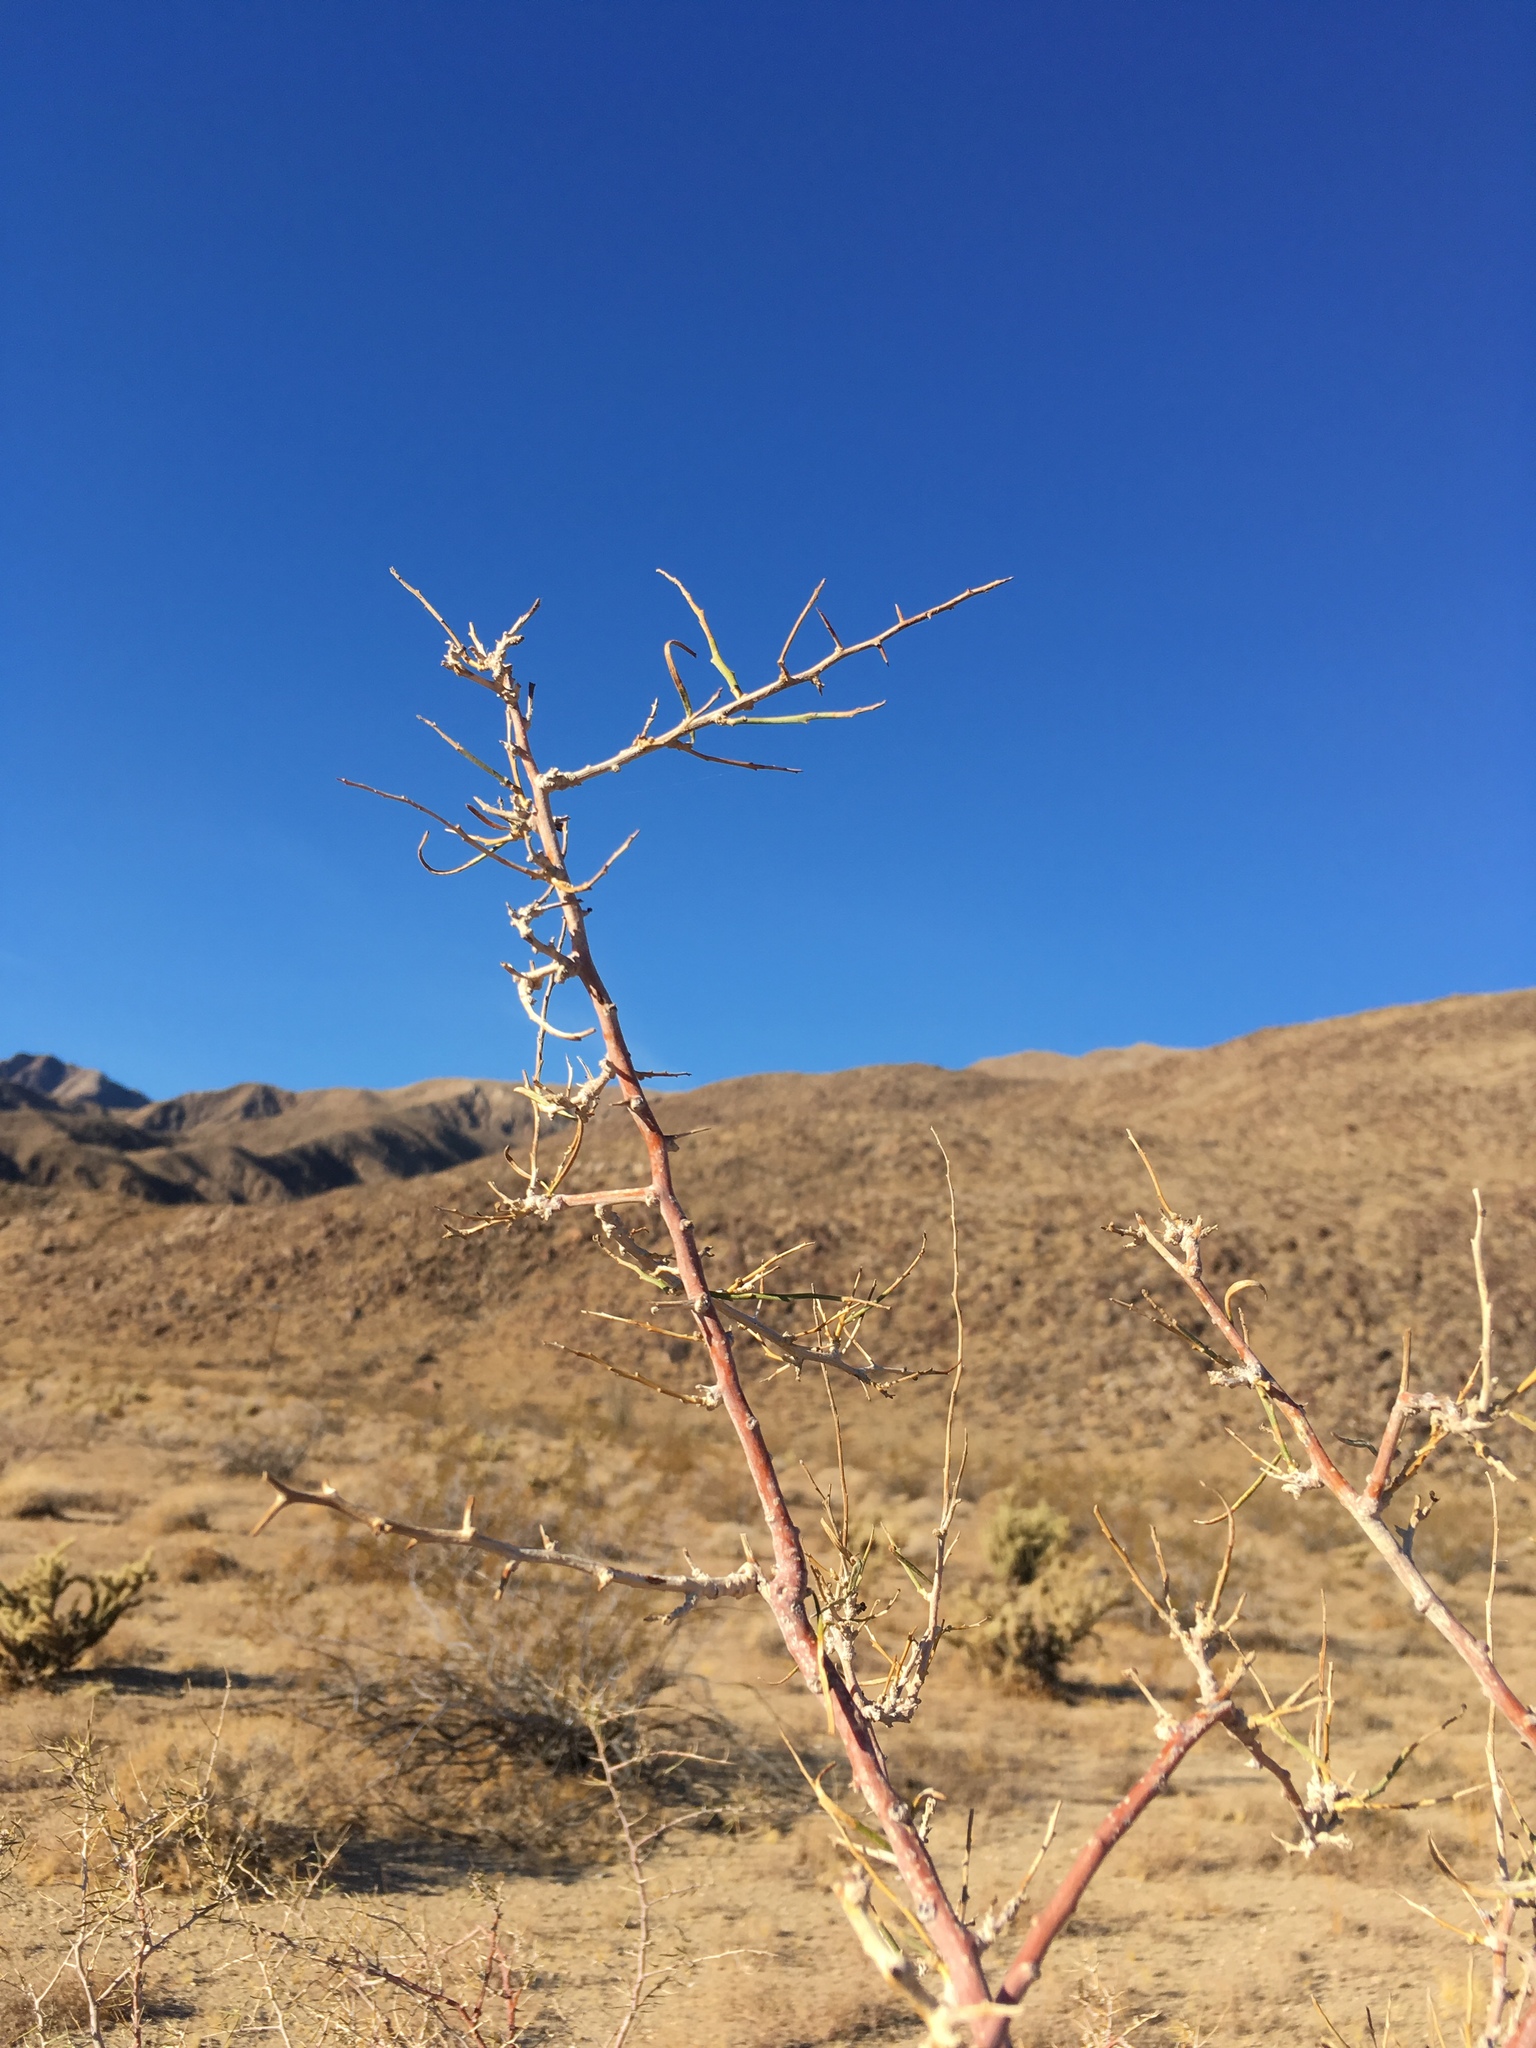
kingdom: Plantae
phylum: Tracheophyta
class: Magnoliopsida
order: Fabales
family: Fabaceae
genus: Psorothamnus
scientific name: Psorothamnus schottii
